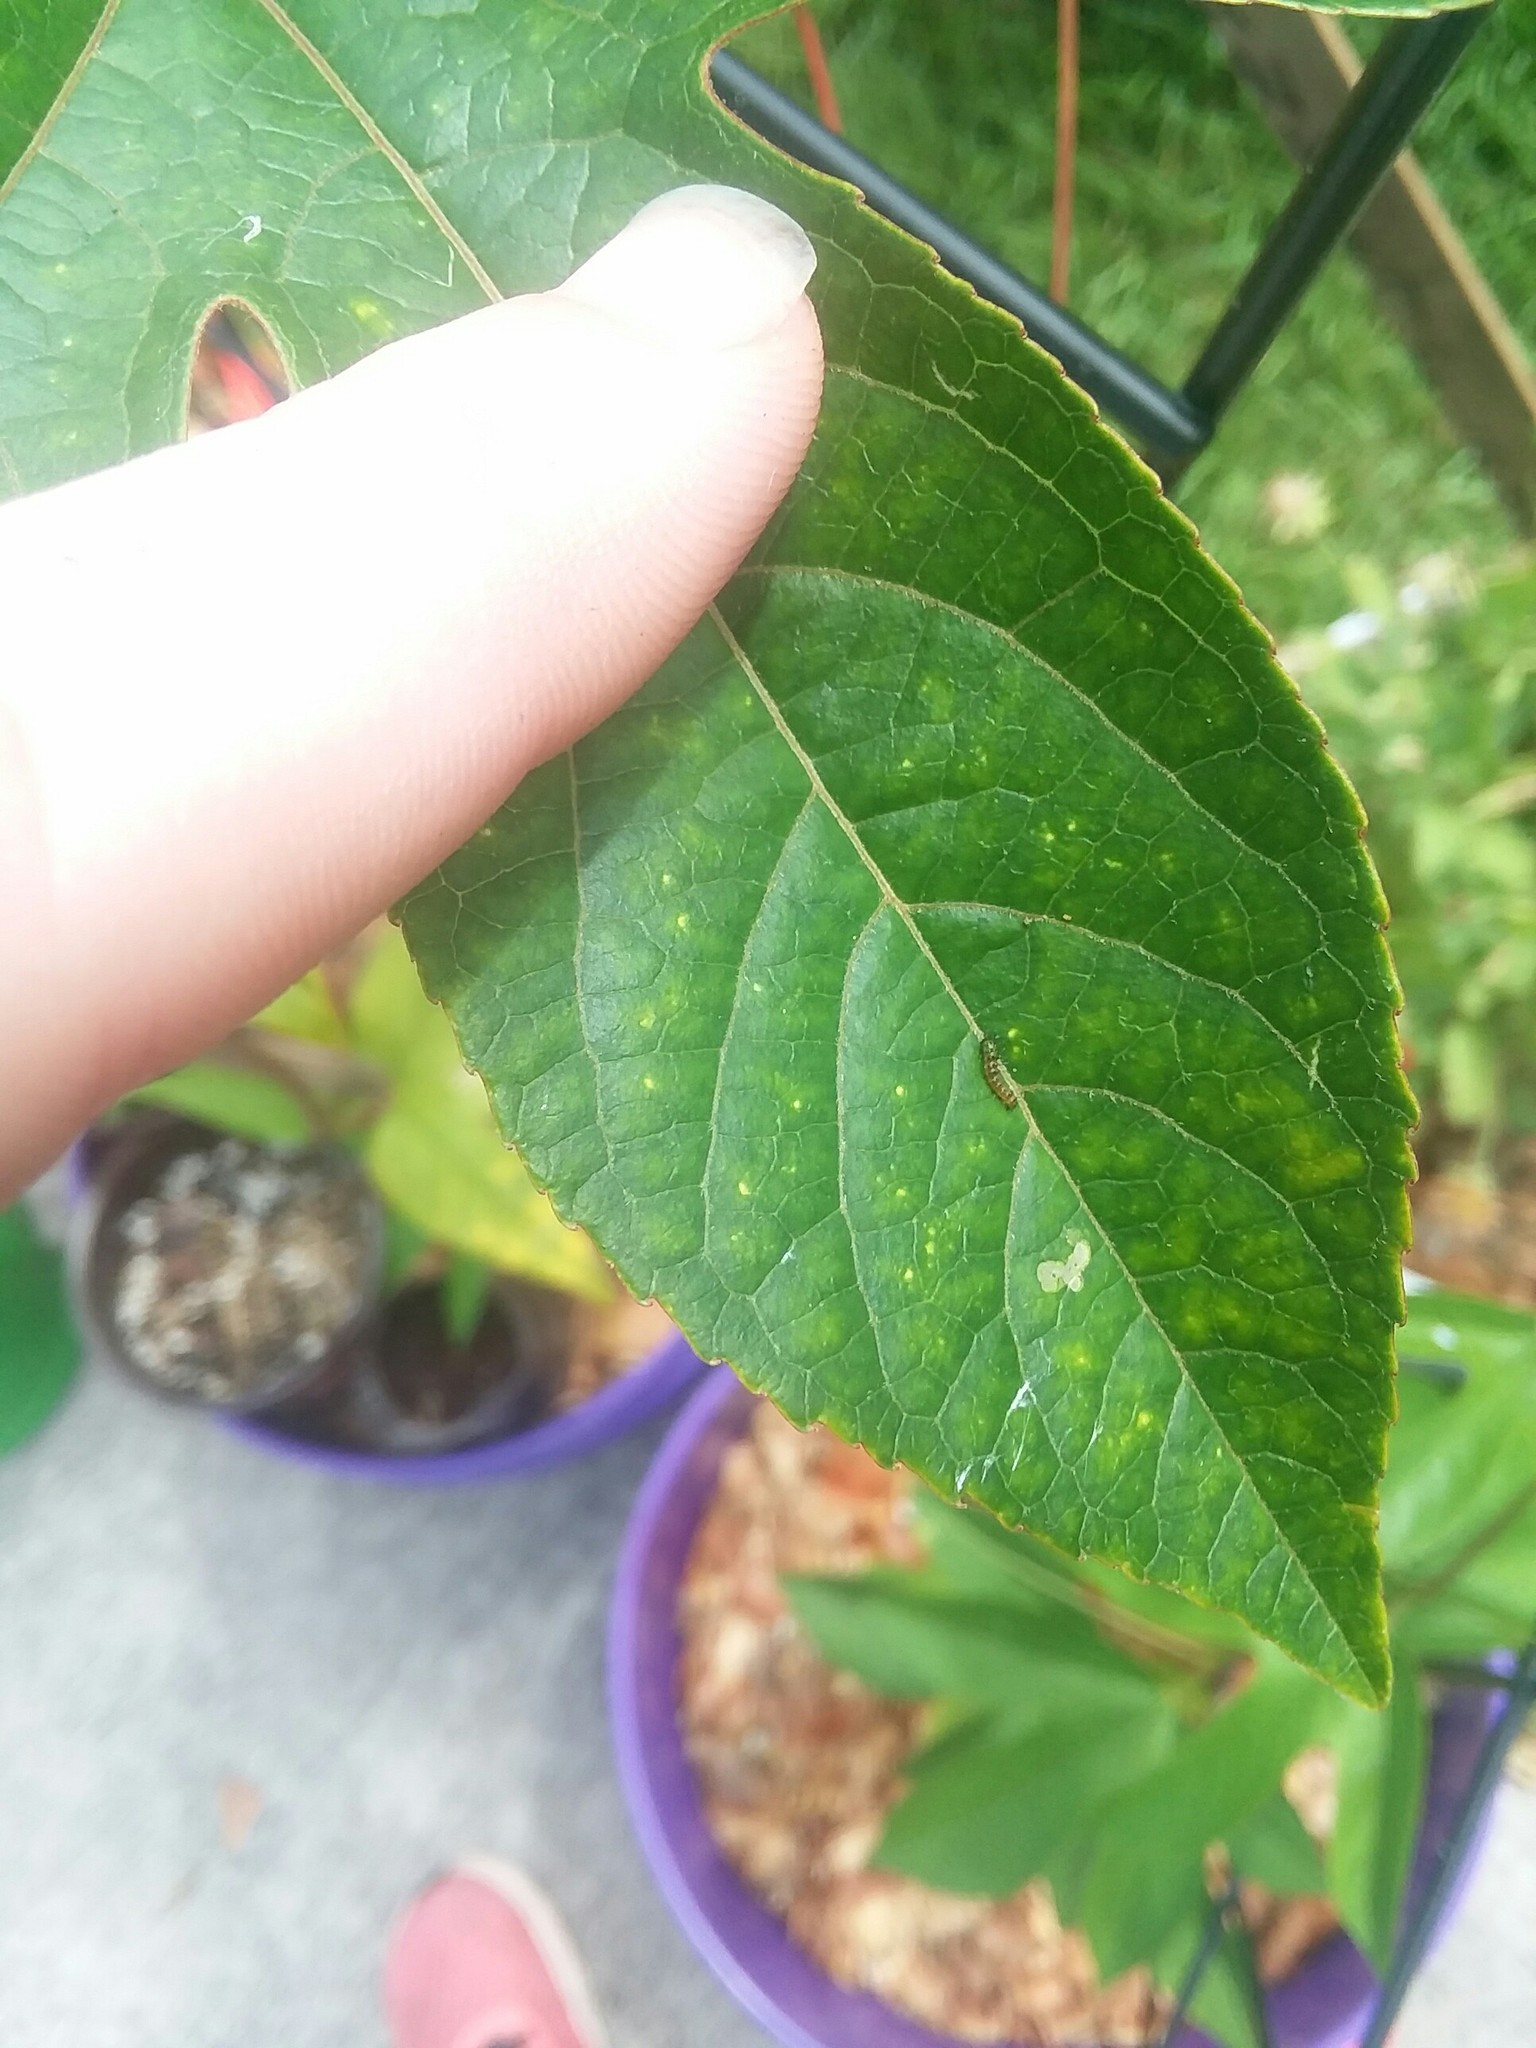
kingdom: Animalia
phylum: Arthropoda
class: Insecta
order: Lepidoptera
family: Nymphalidae
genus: Dione
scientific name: Dione vanillae
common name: Gulf fritillary
